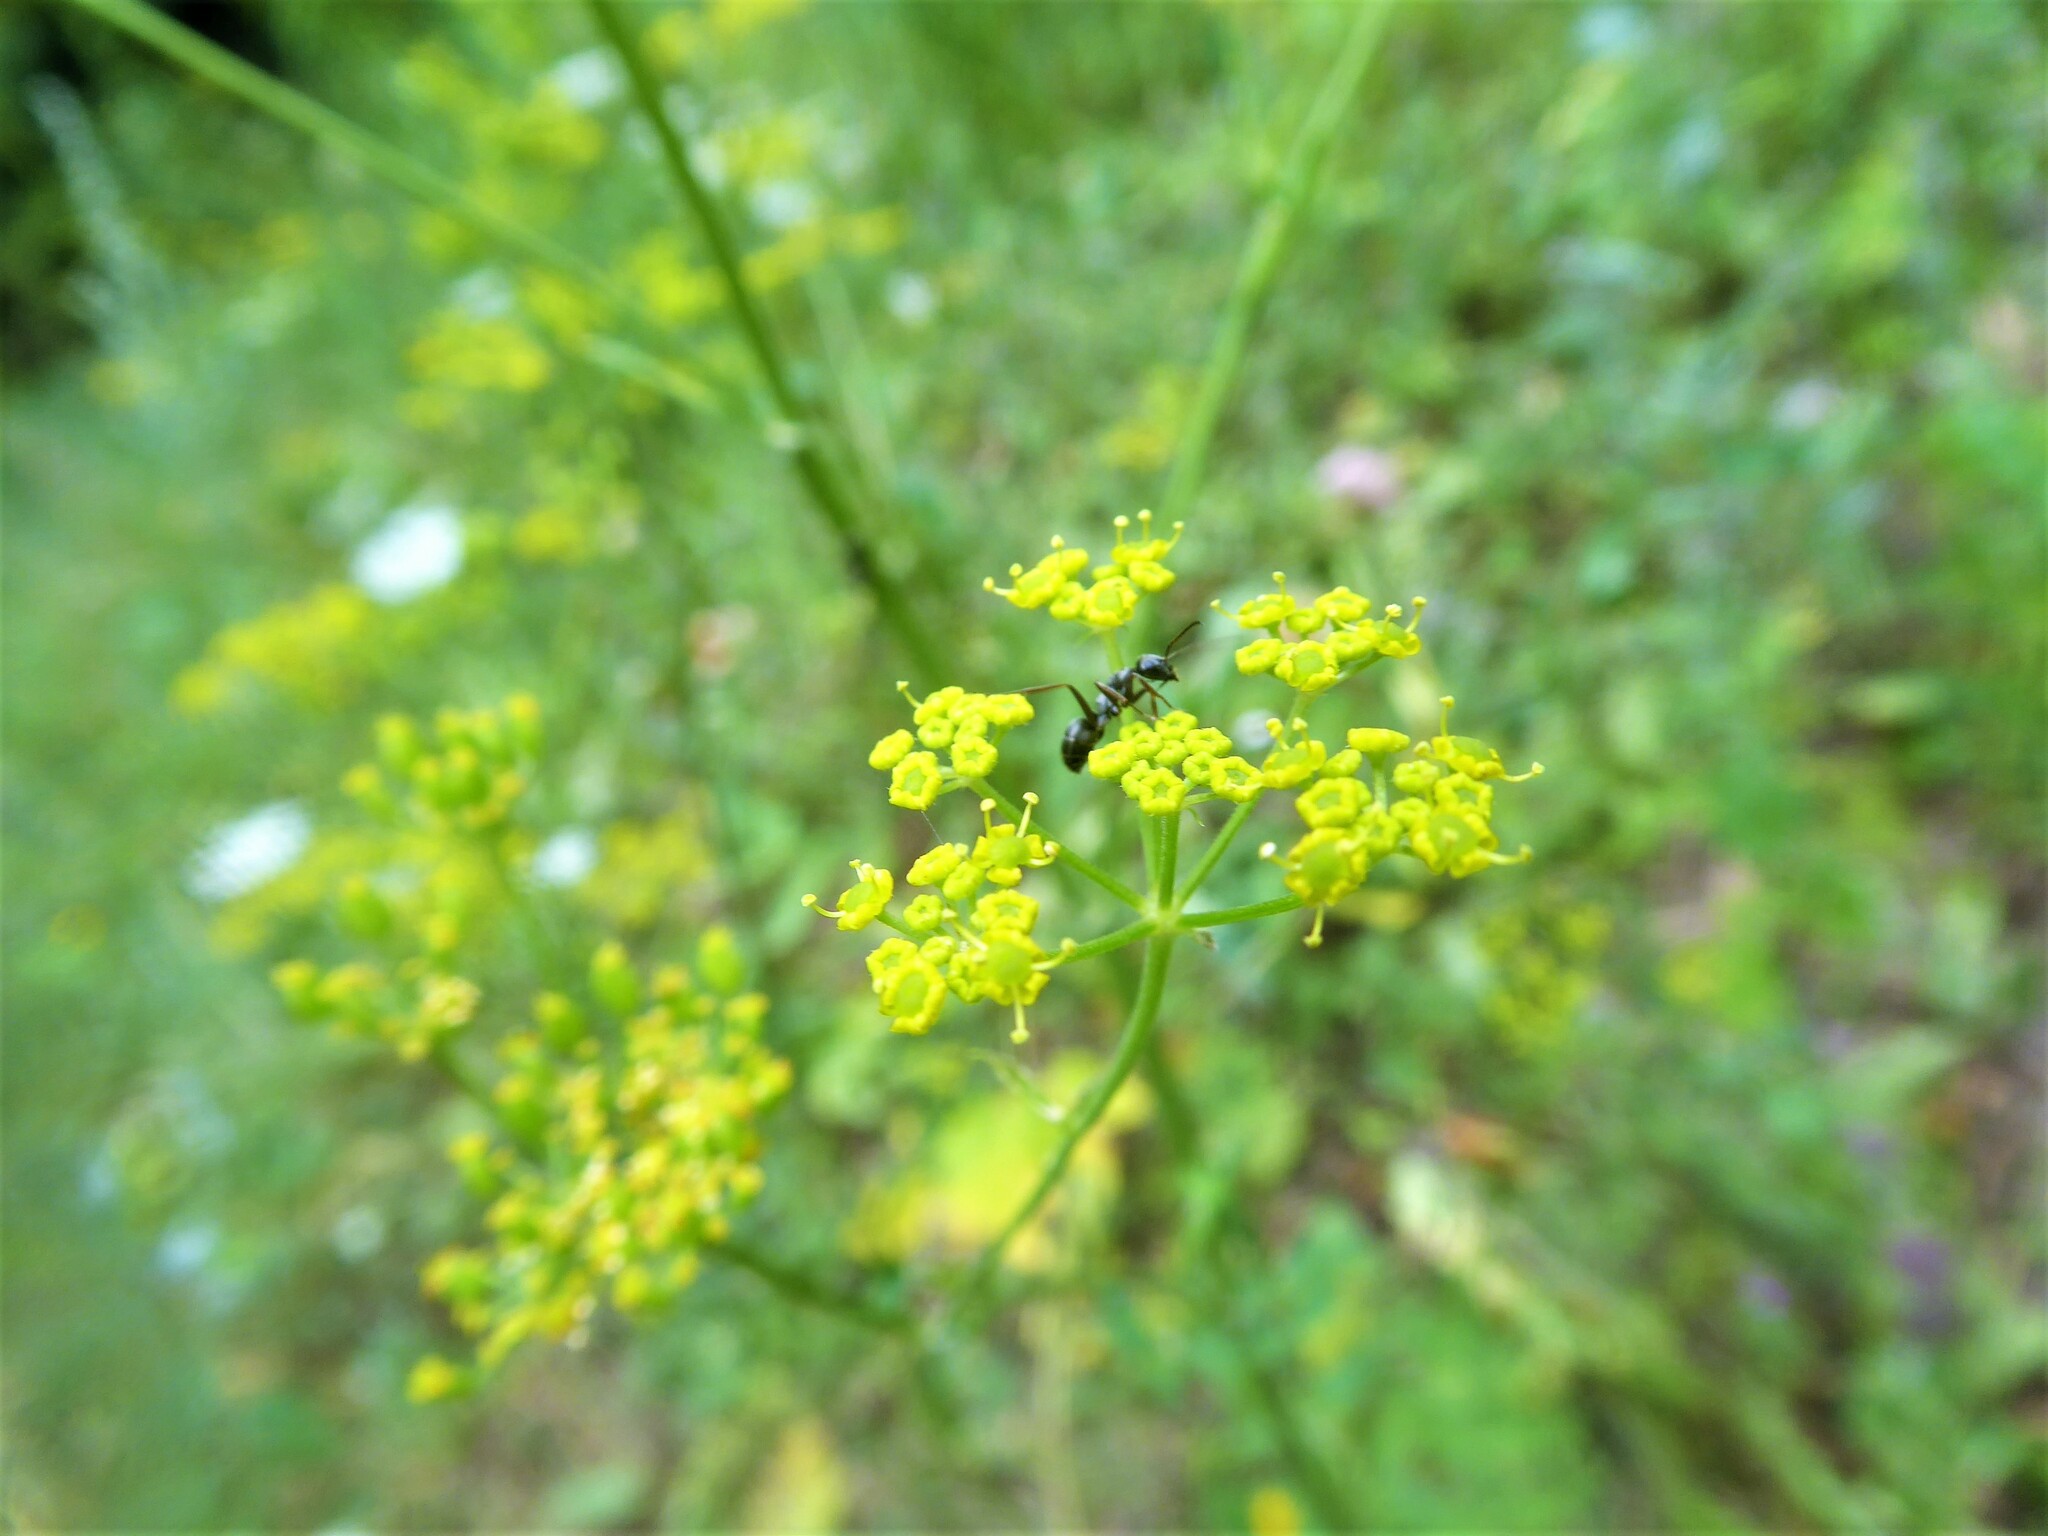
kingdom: Plantae
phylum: Tracheophyta
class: Magnoliopsida
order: Apiales
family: Apiaceae
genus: Pastinaca
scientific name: Pastinaca sativa
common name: Wild parsnip
